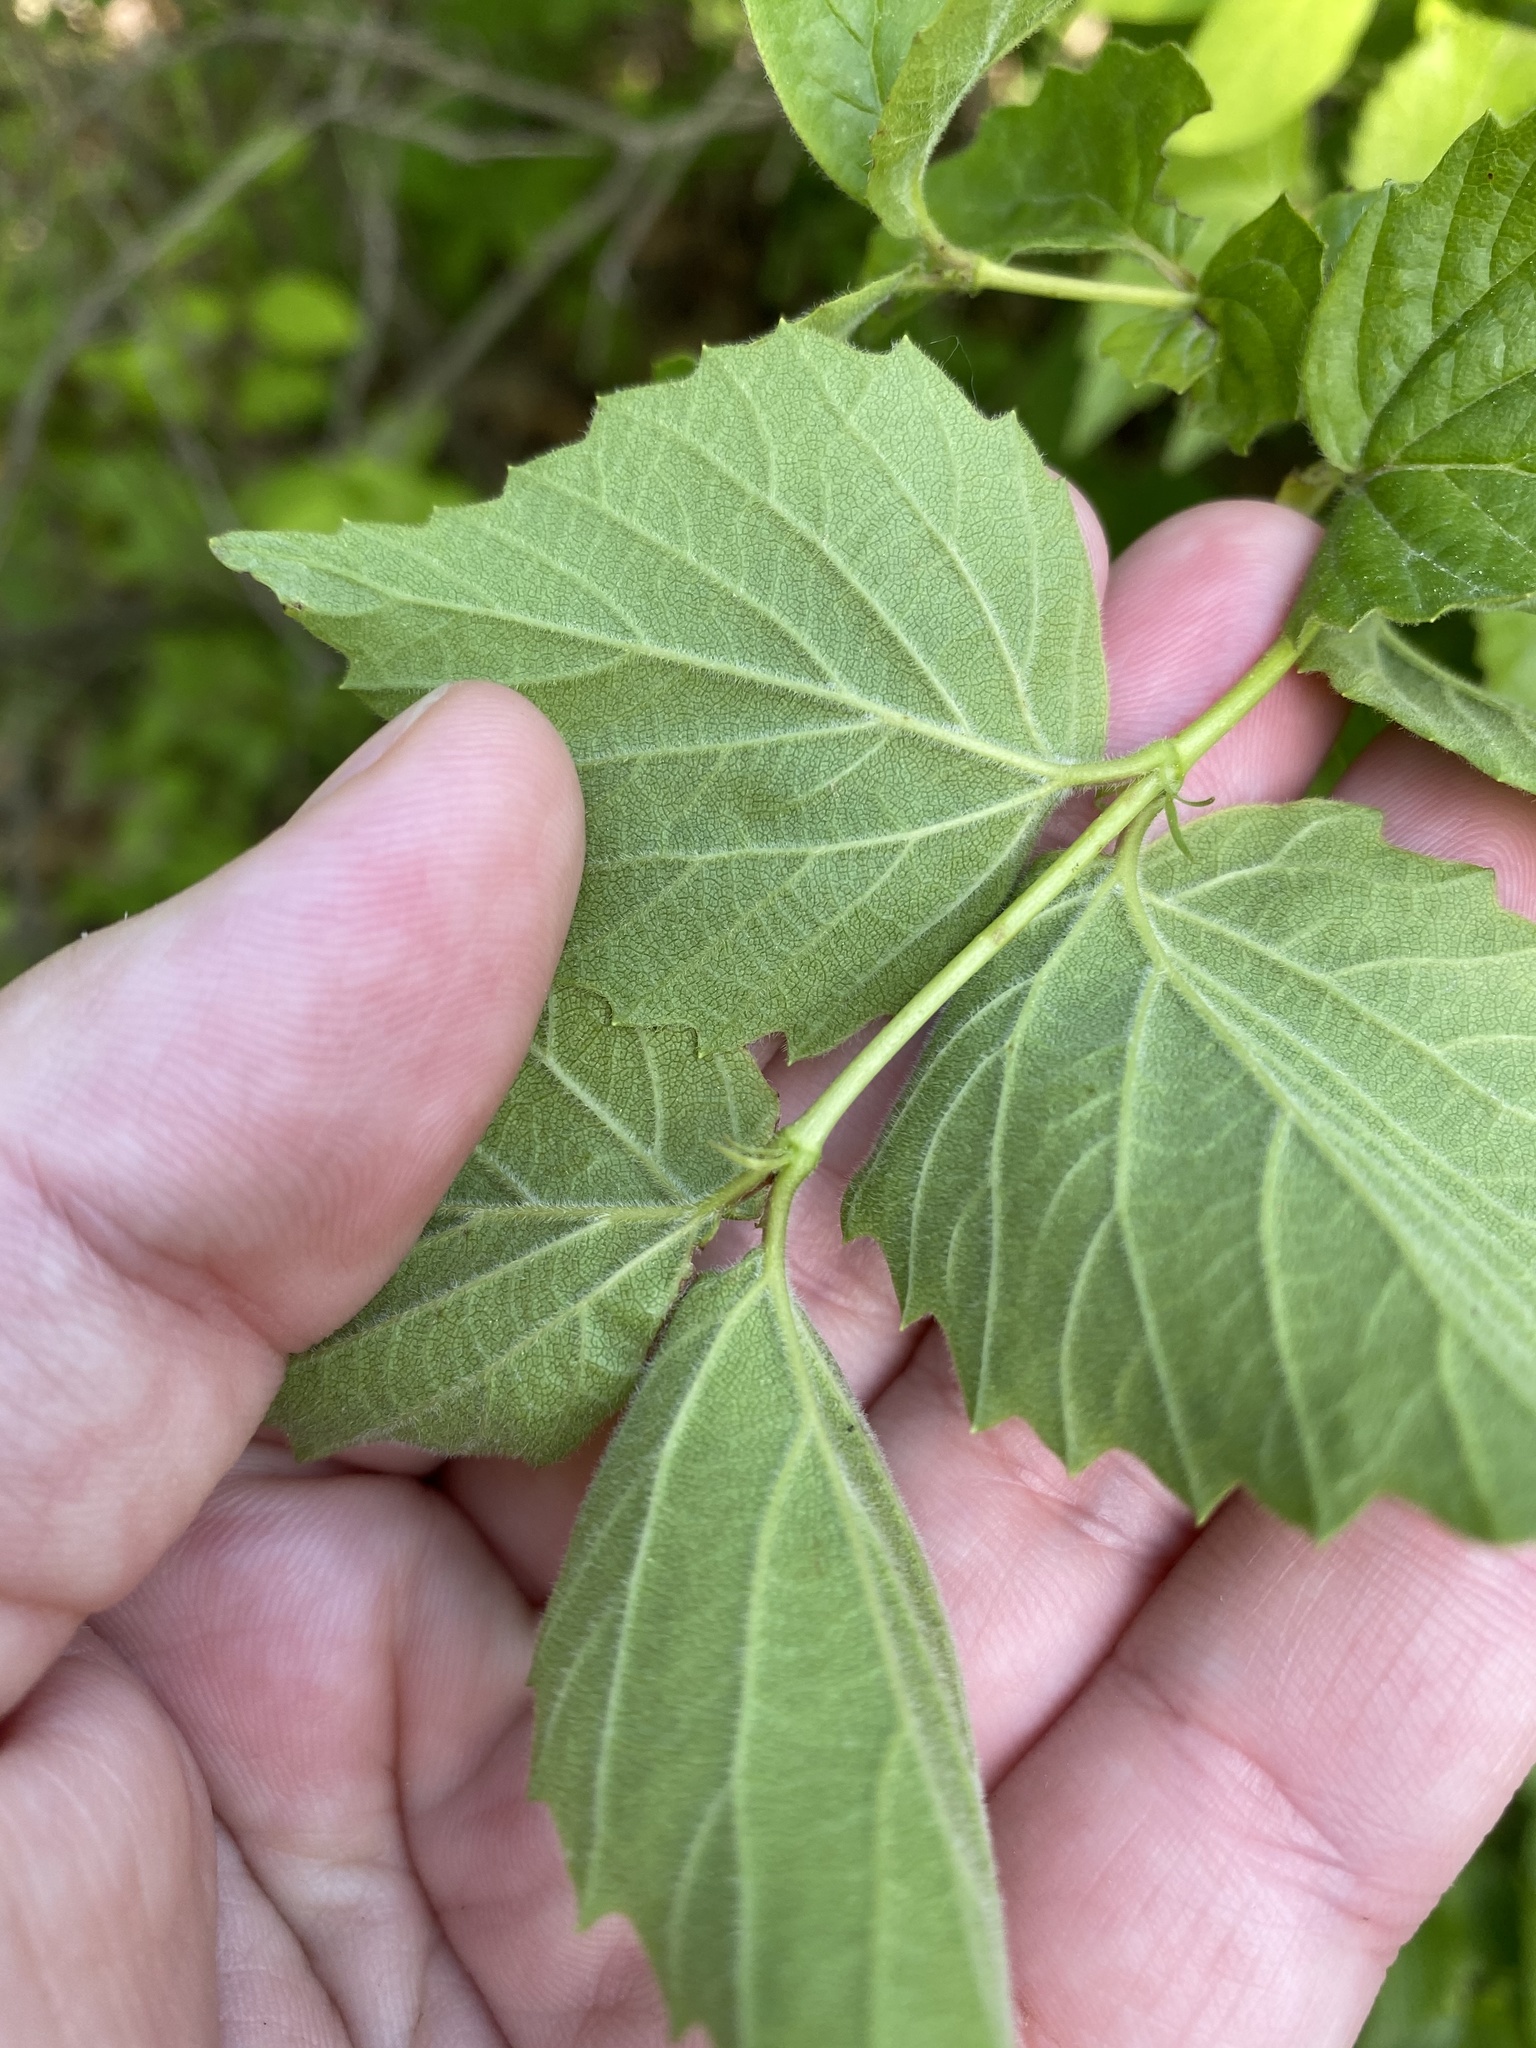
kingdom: Plantae
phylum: Tracheophyta
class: Magnoliopsida
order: Dipsacales
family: Viburnaceae
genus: Viburnum
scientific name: Viburnum rafinesqueanum
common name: Downy arrow-wood
